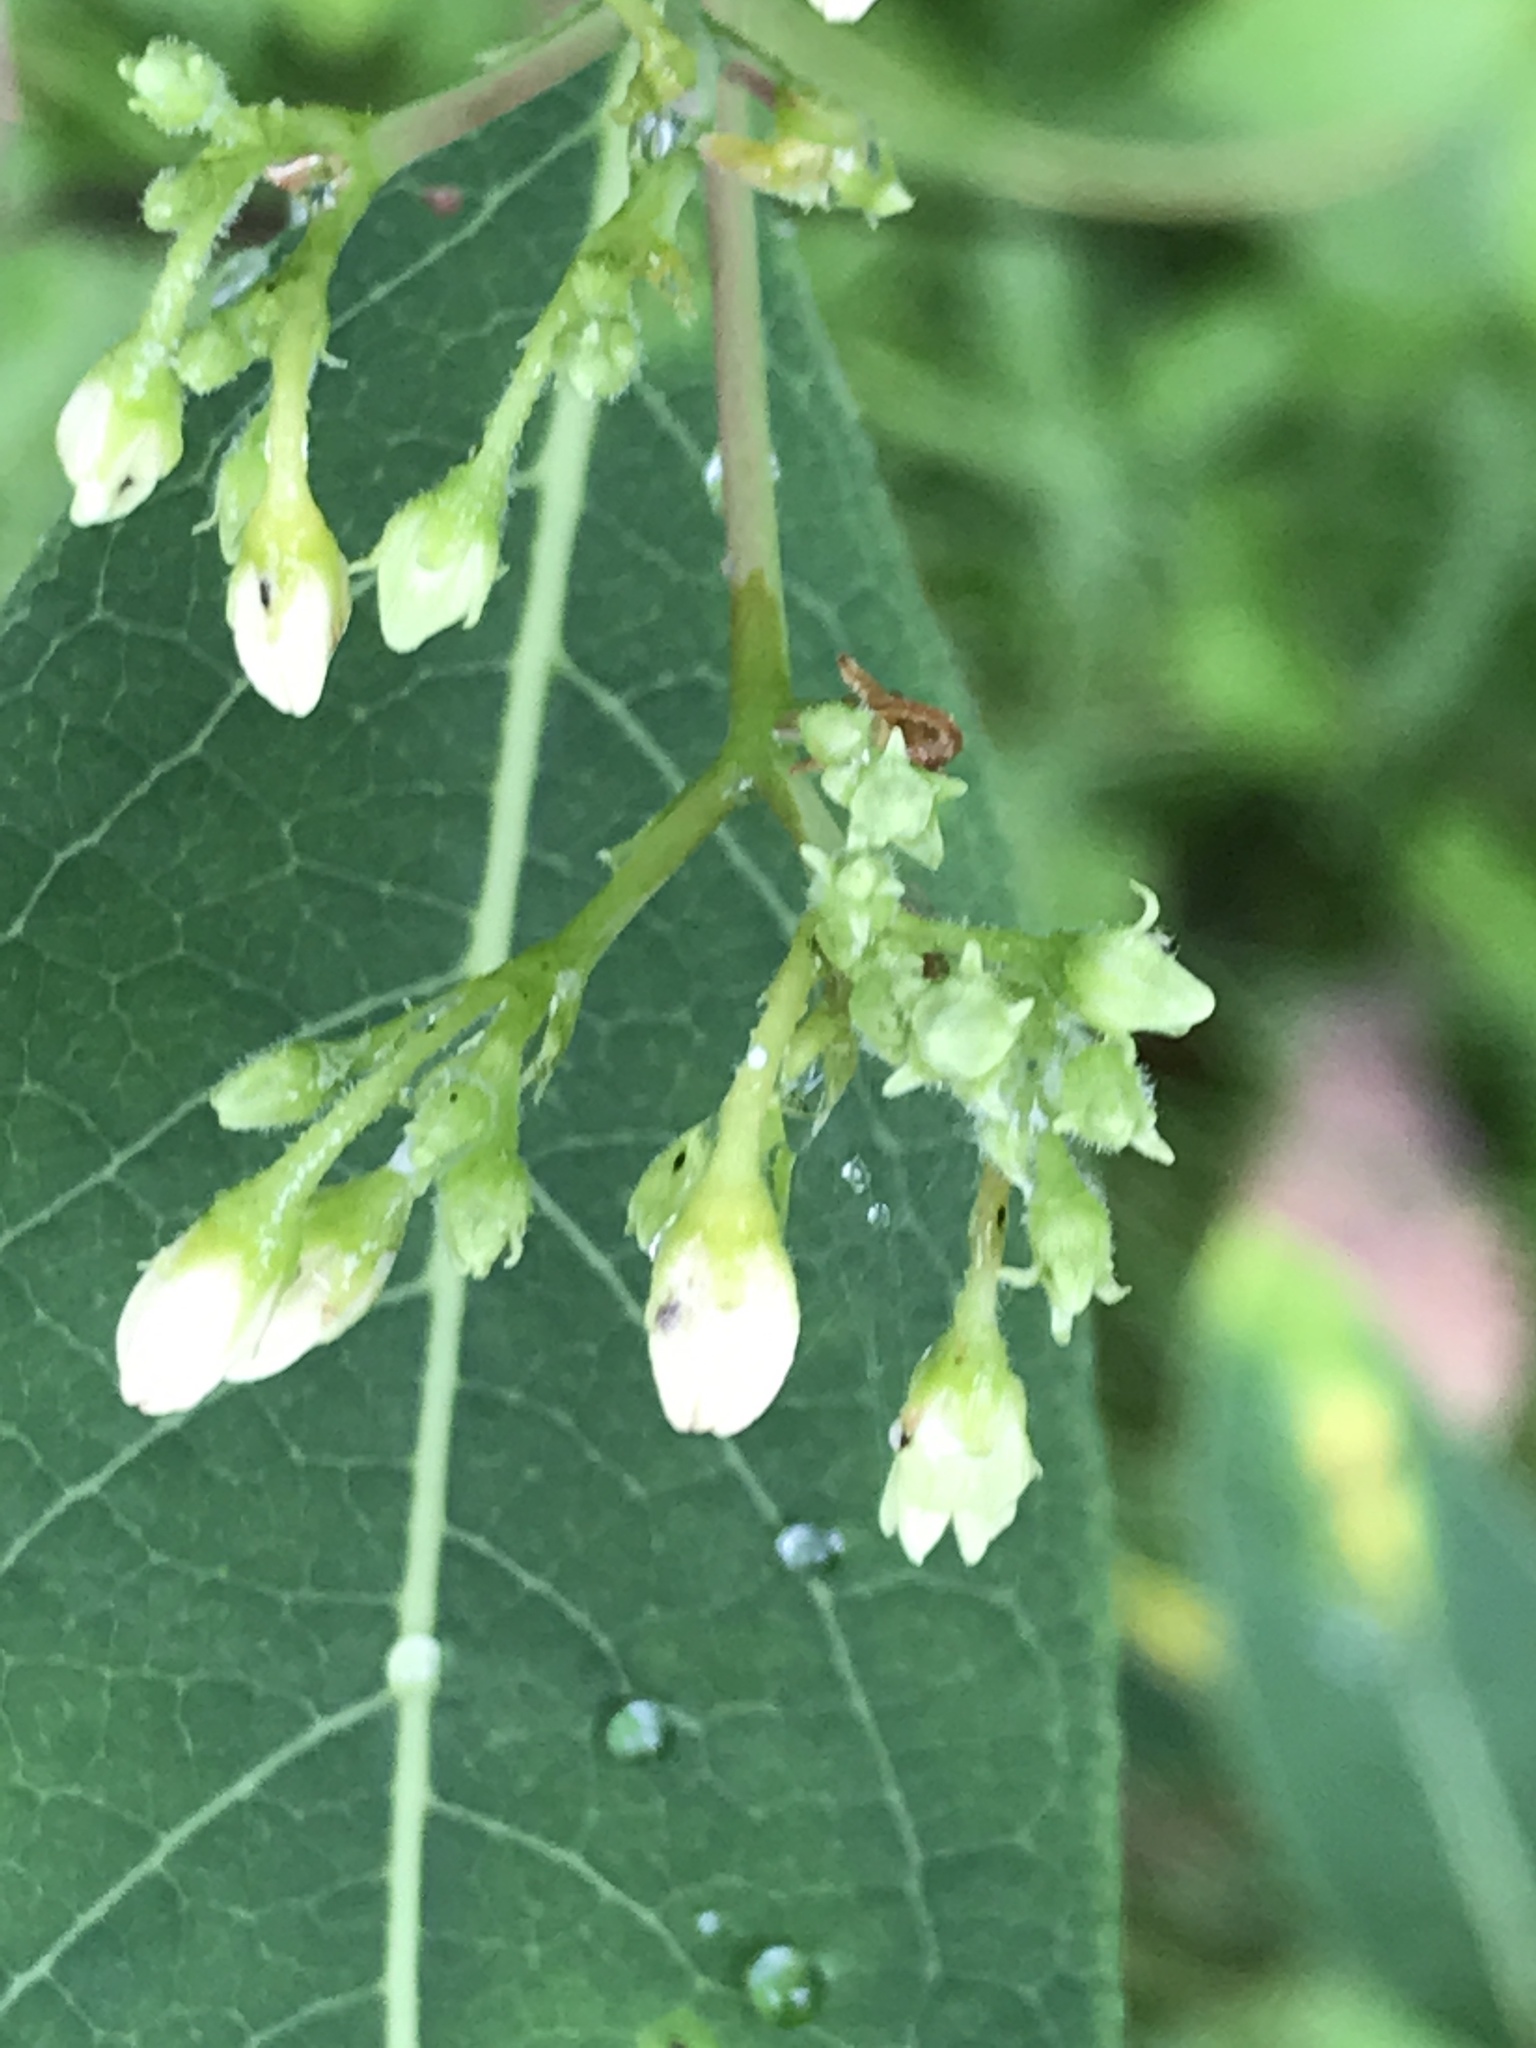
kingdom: Plantae
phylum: Tracheophyta
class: Magnoliopsida
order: Gentianales
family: Apocynaceae
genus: Apocynum
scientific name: Apocynum cannabinum
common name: Hemp dogbane
